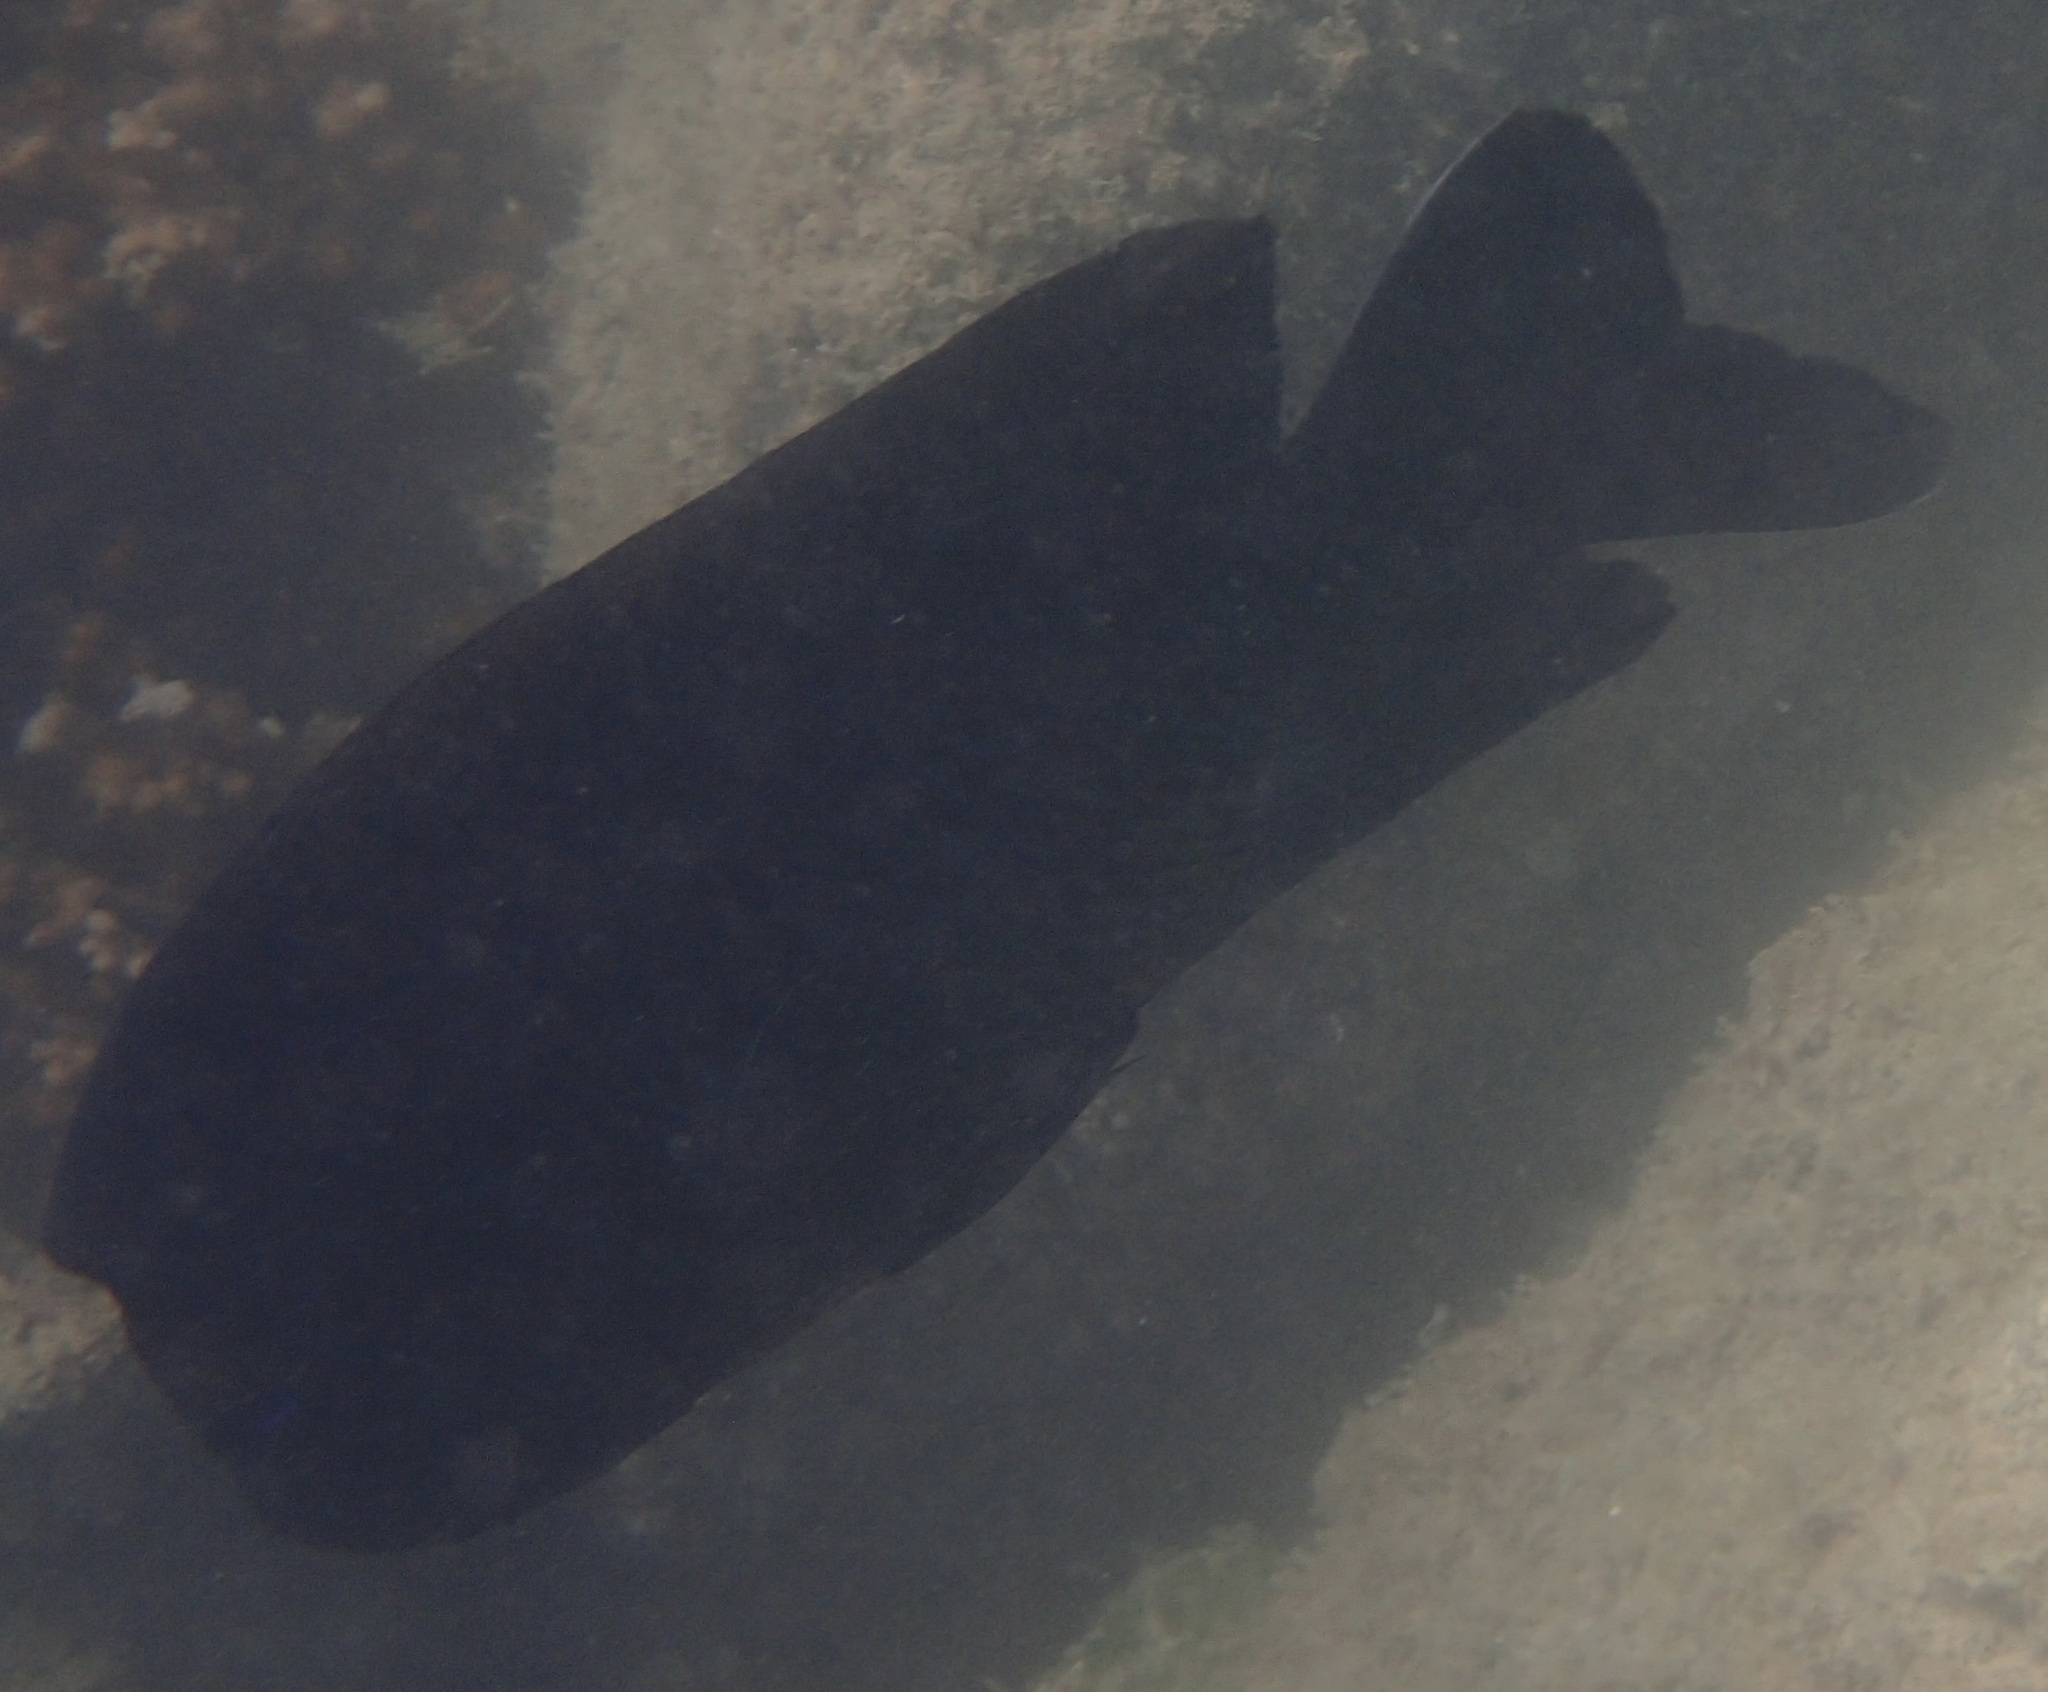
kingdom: Animalia
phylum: Chordata
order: Perciformes
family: Pomacentridae
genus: Microspathodon
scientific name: Microspathodon bairdii
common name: Bumphead damselfish
